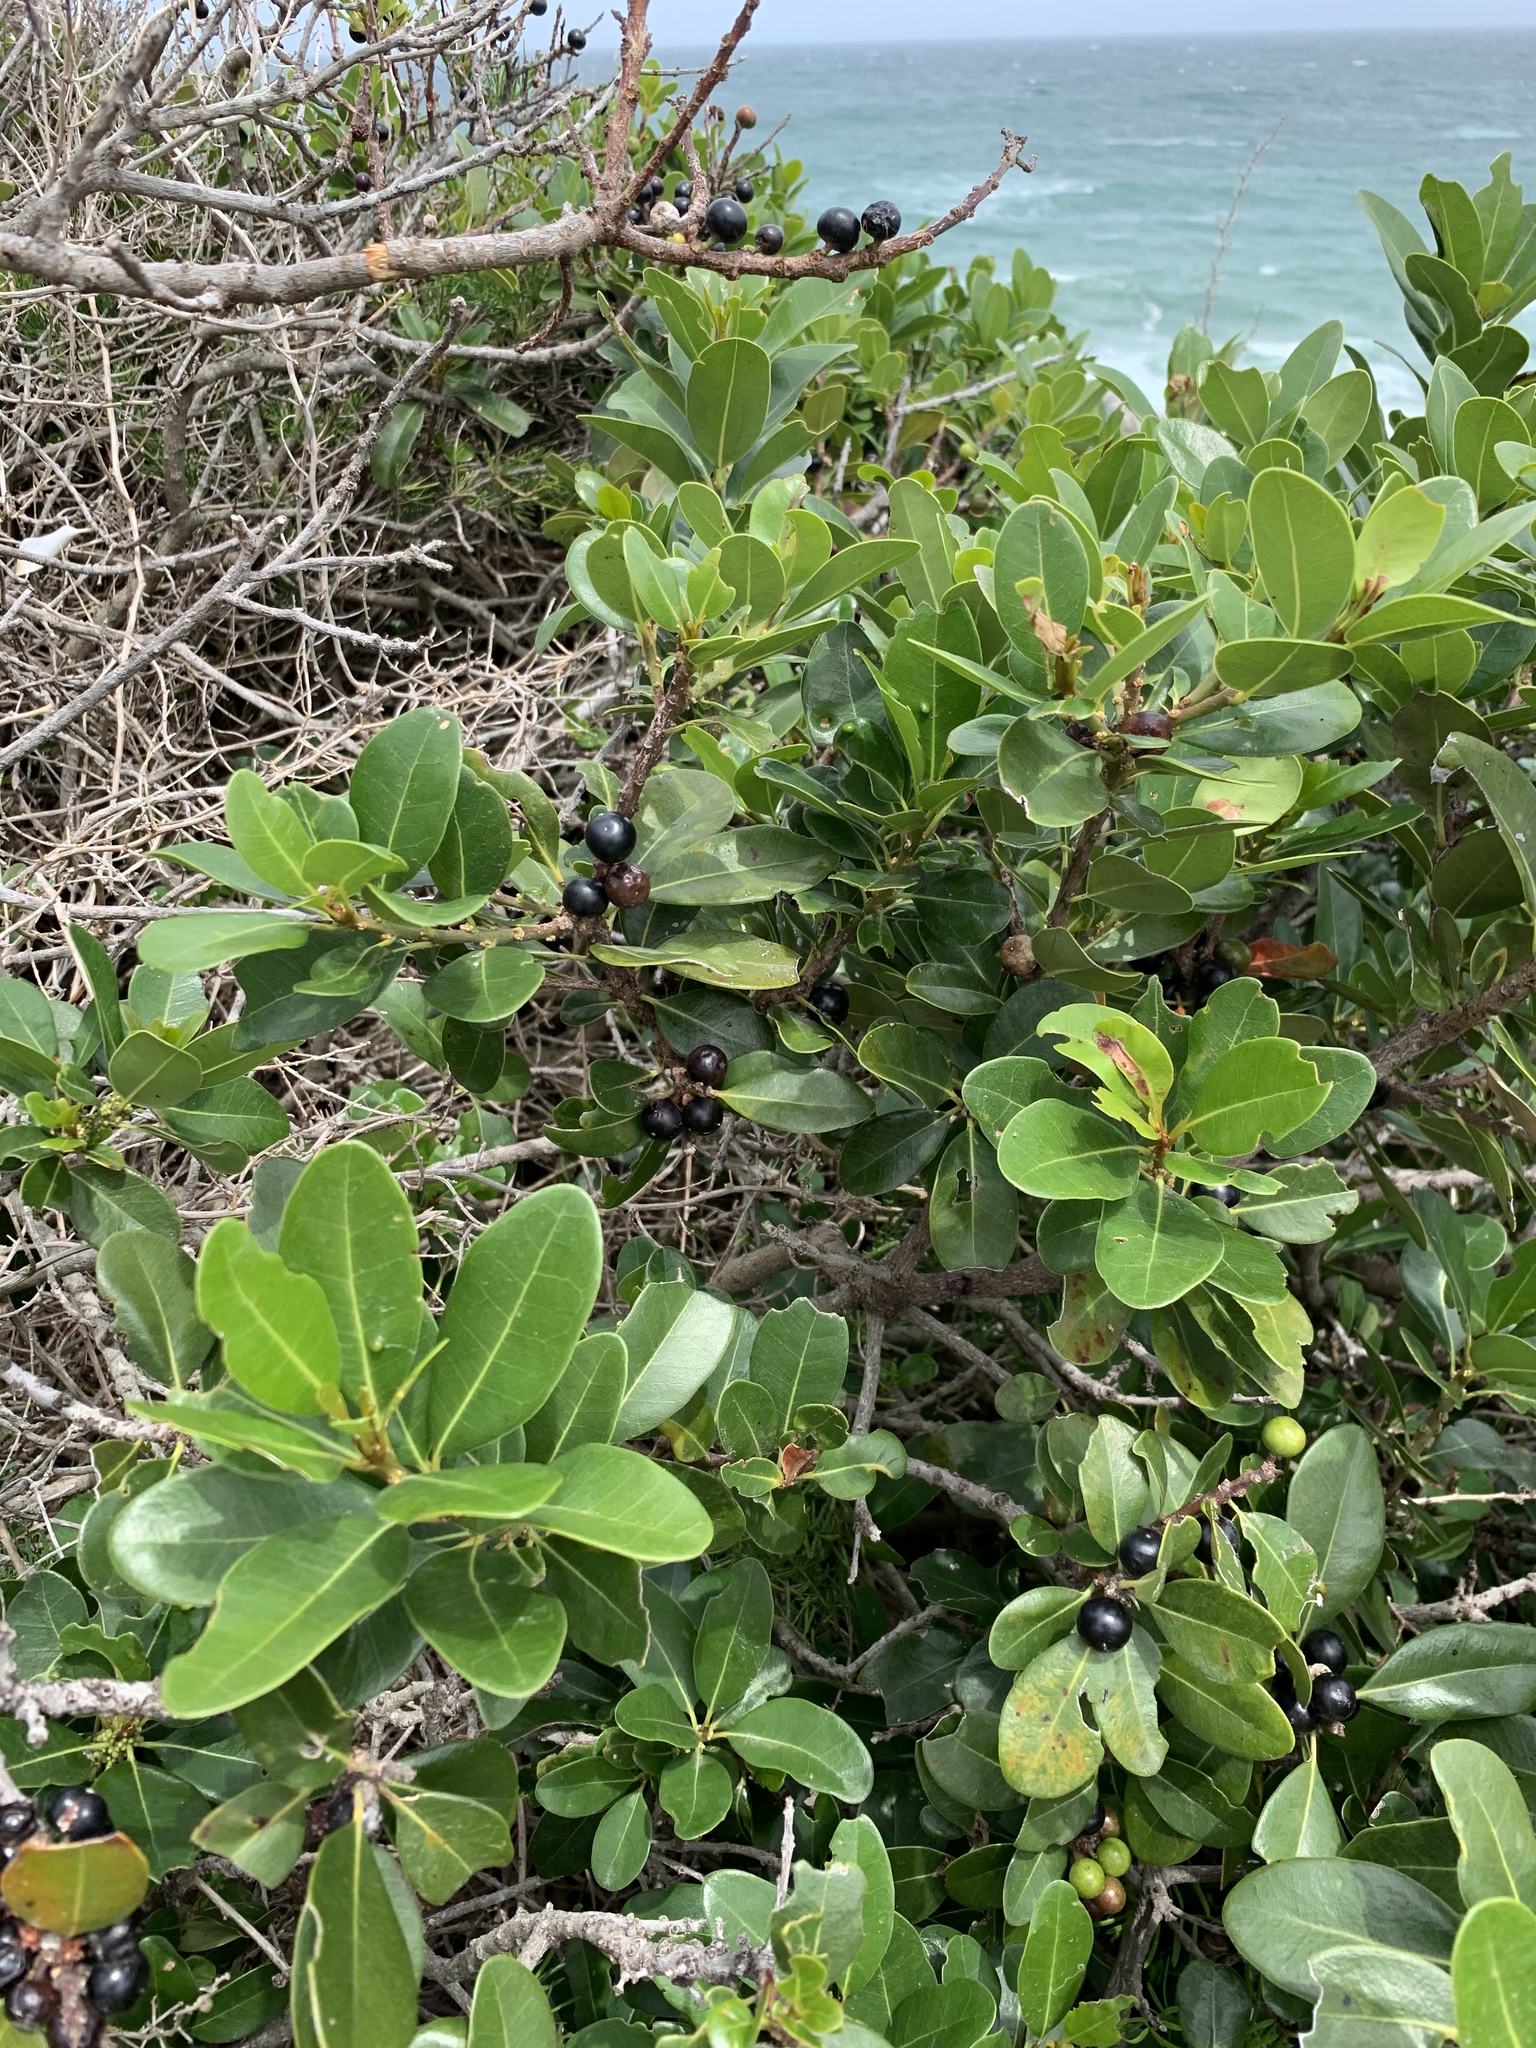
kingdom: Plantae
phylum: Tracheophyta
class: Magnoliopsida
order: Ericales
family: Sapotaceae
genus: Sideroxylon
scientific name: Sideroxylon inerme
